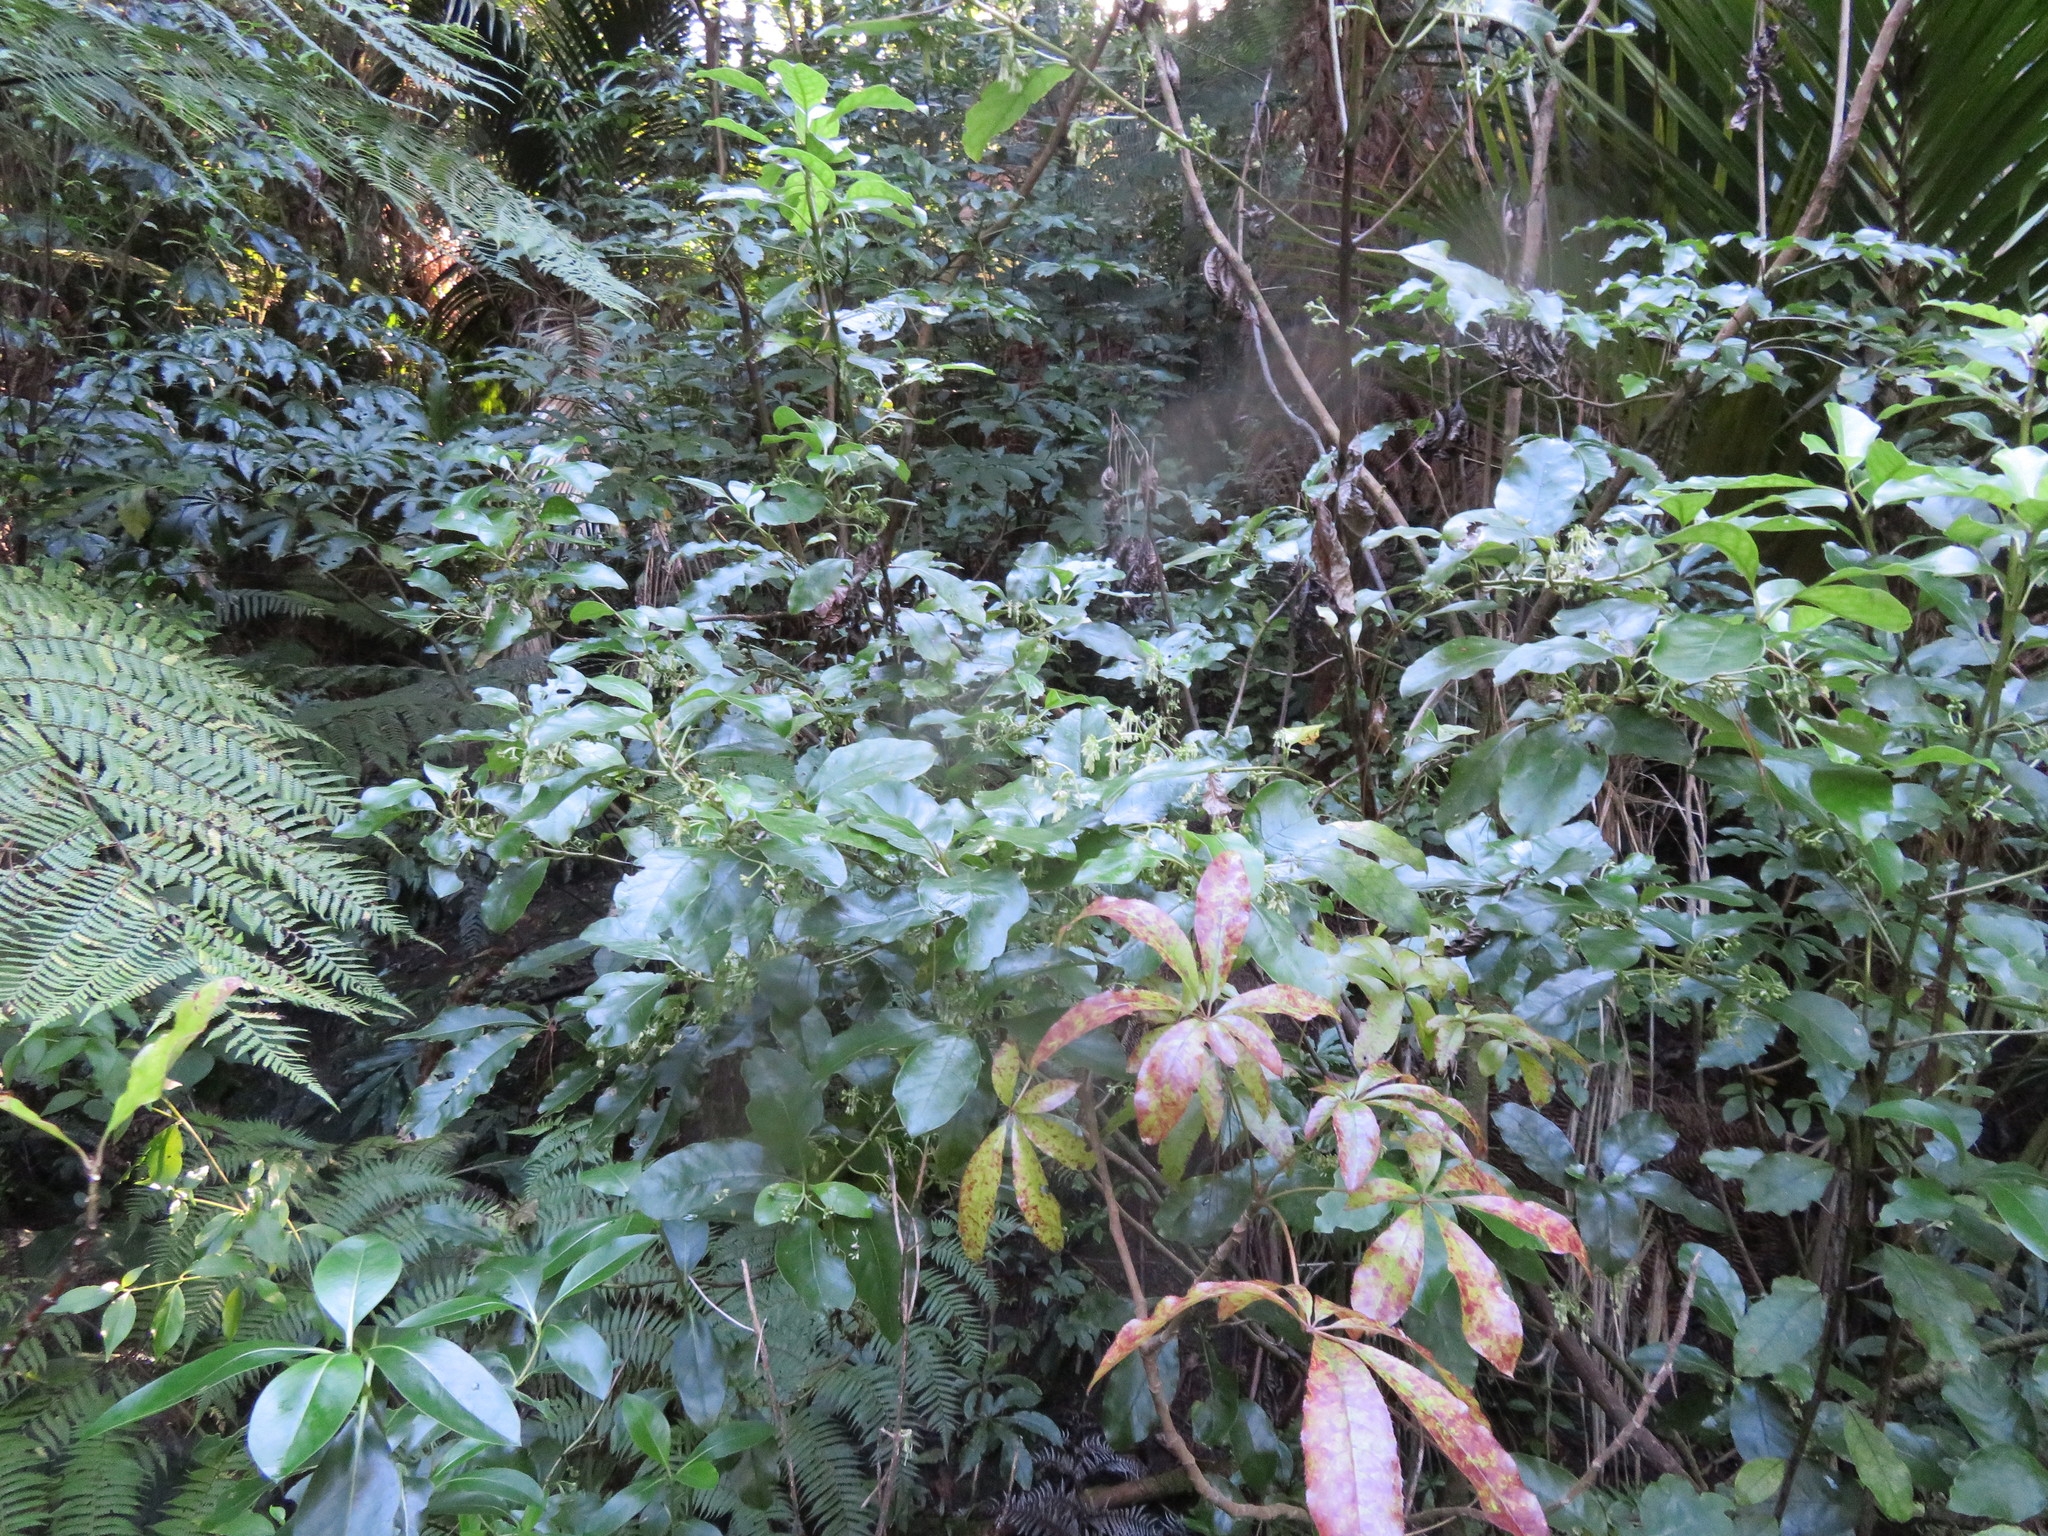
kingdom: Plantae
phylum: Tracheophyta
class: Magnoliopsida
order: Gentianales
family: Rubiaceae
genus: Coprosma
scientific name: Coprosma autumnalis
